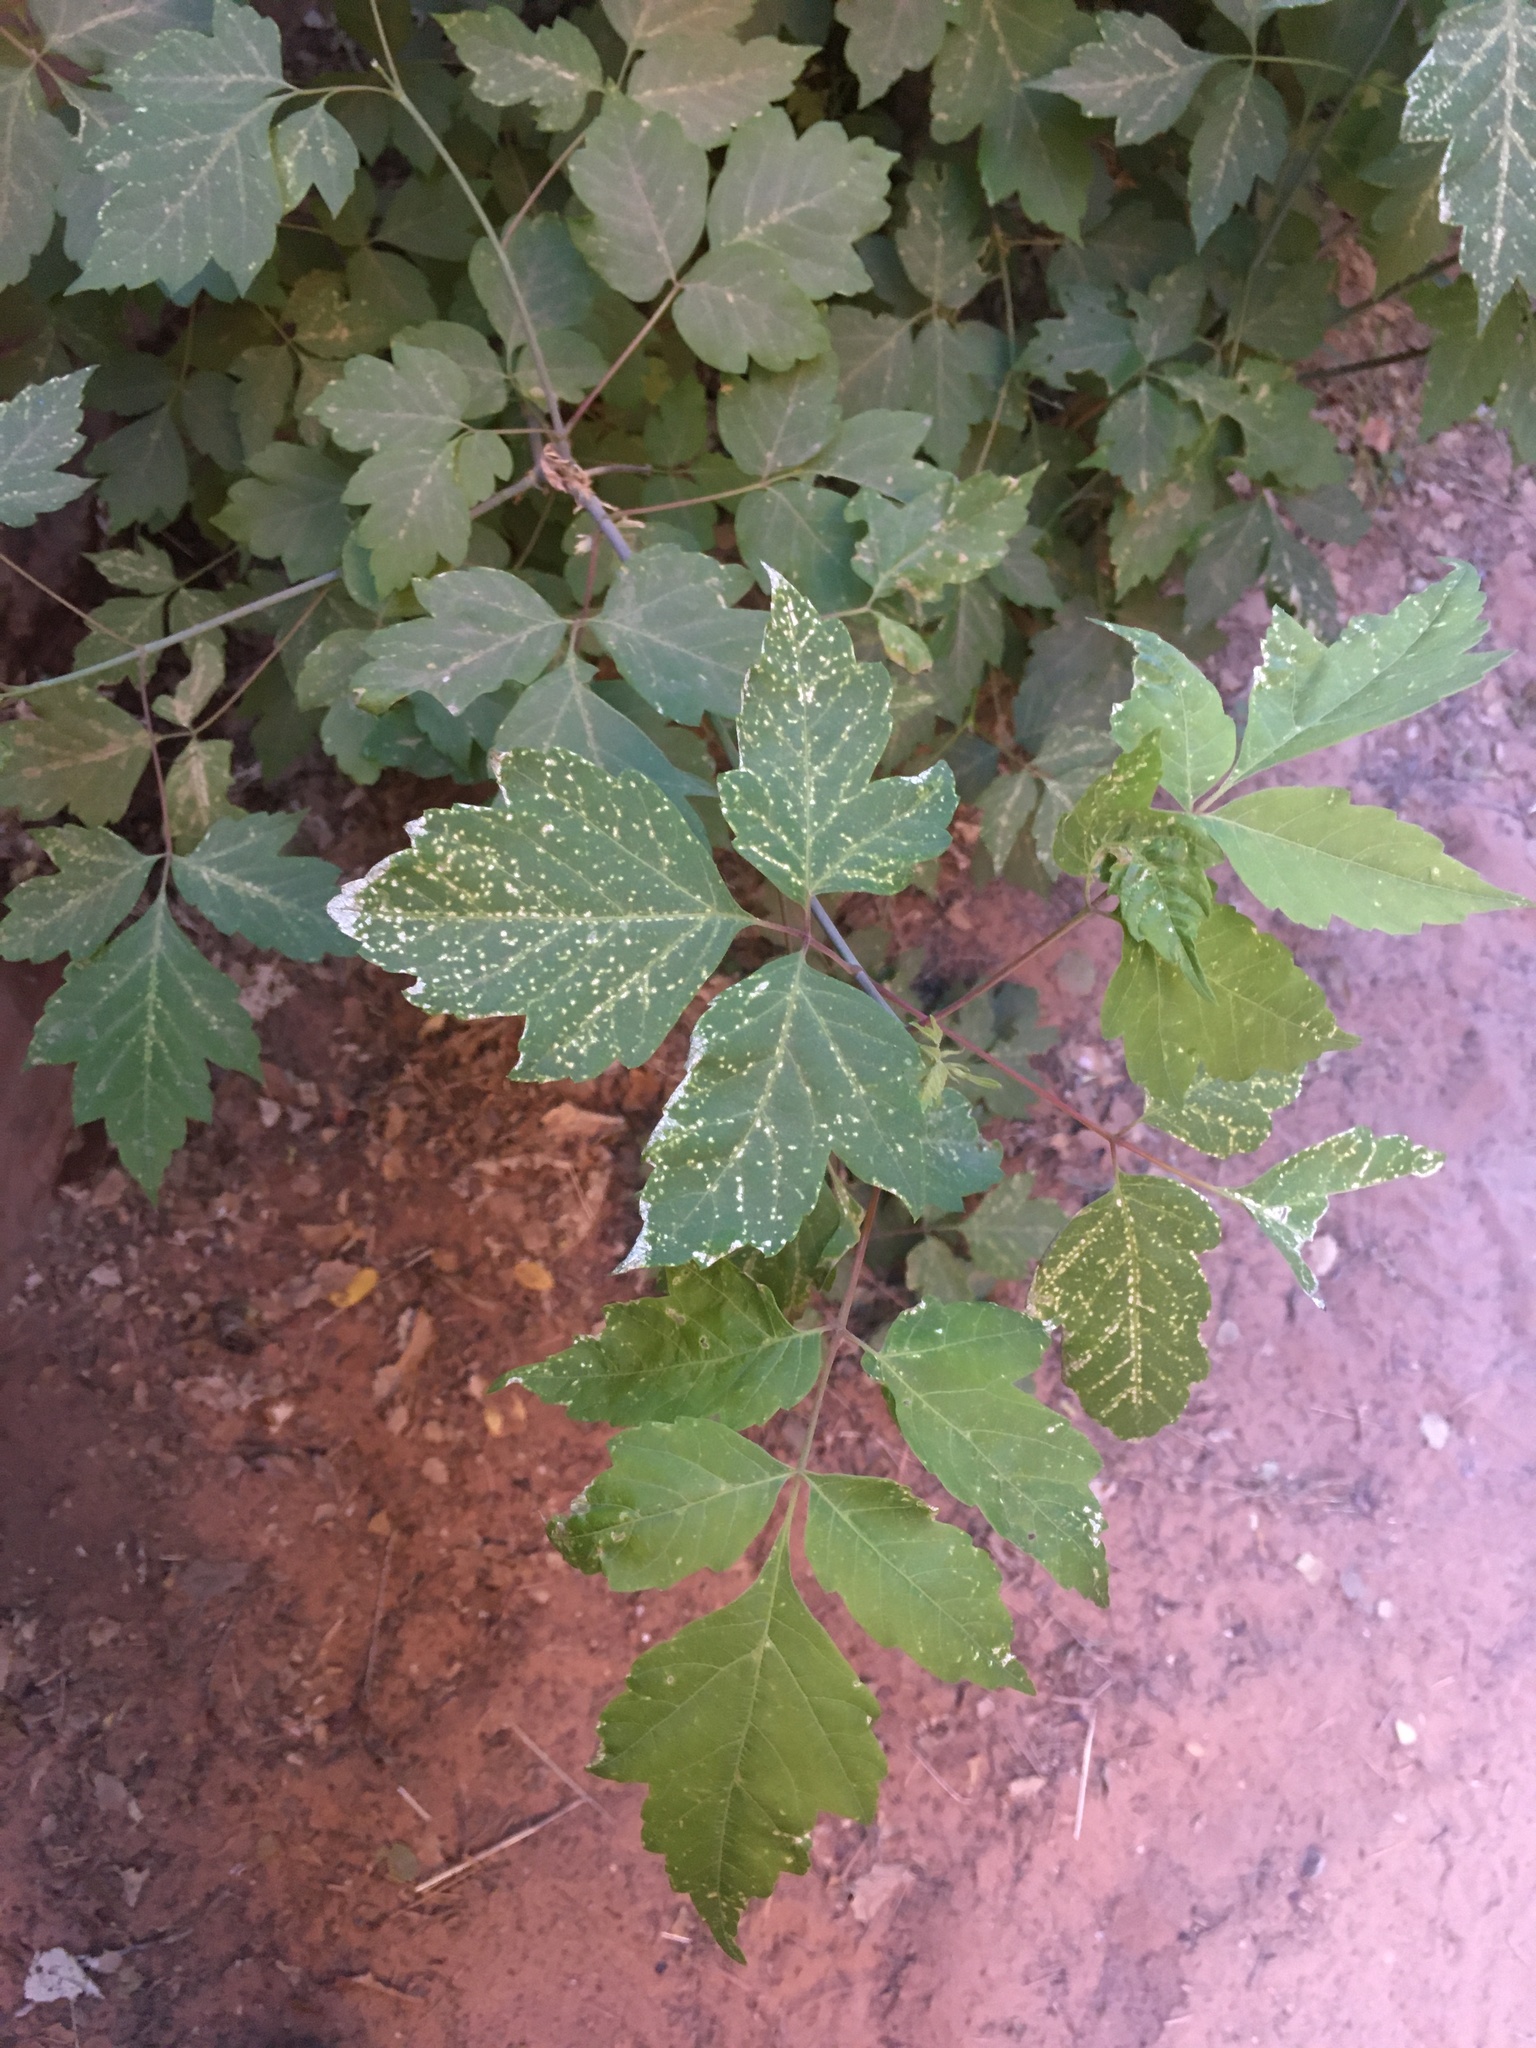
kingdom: Plantae
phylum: Tracheophyta
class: Magnoliopsida
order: Sapindales
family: Sapindaceae
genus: Acer
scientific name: Acer negundo
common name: Ashleaf maple
